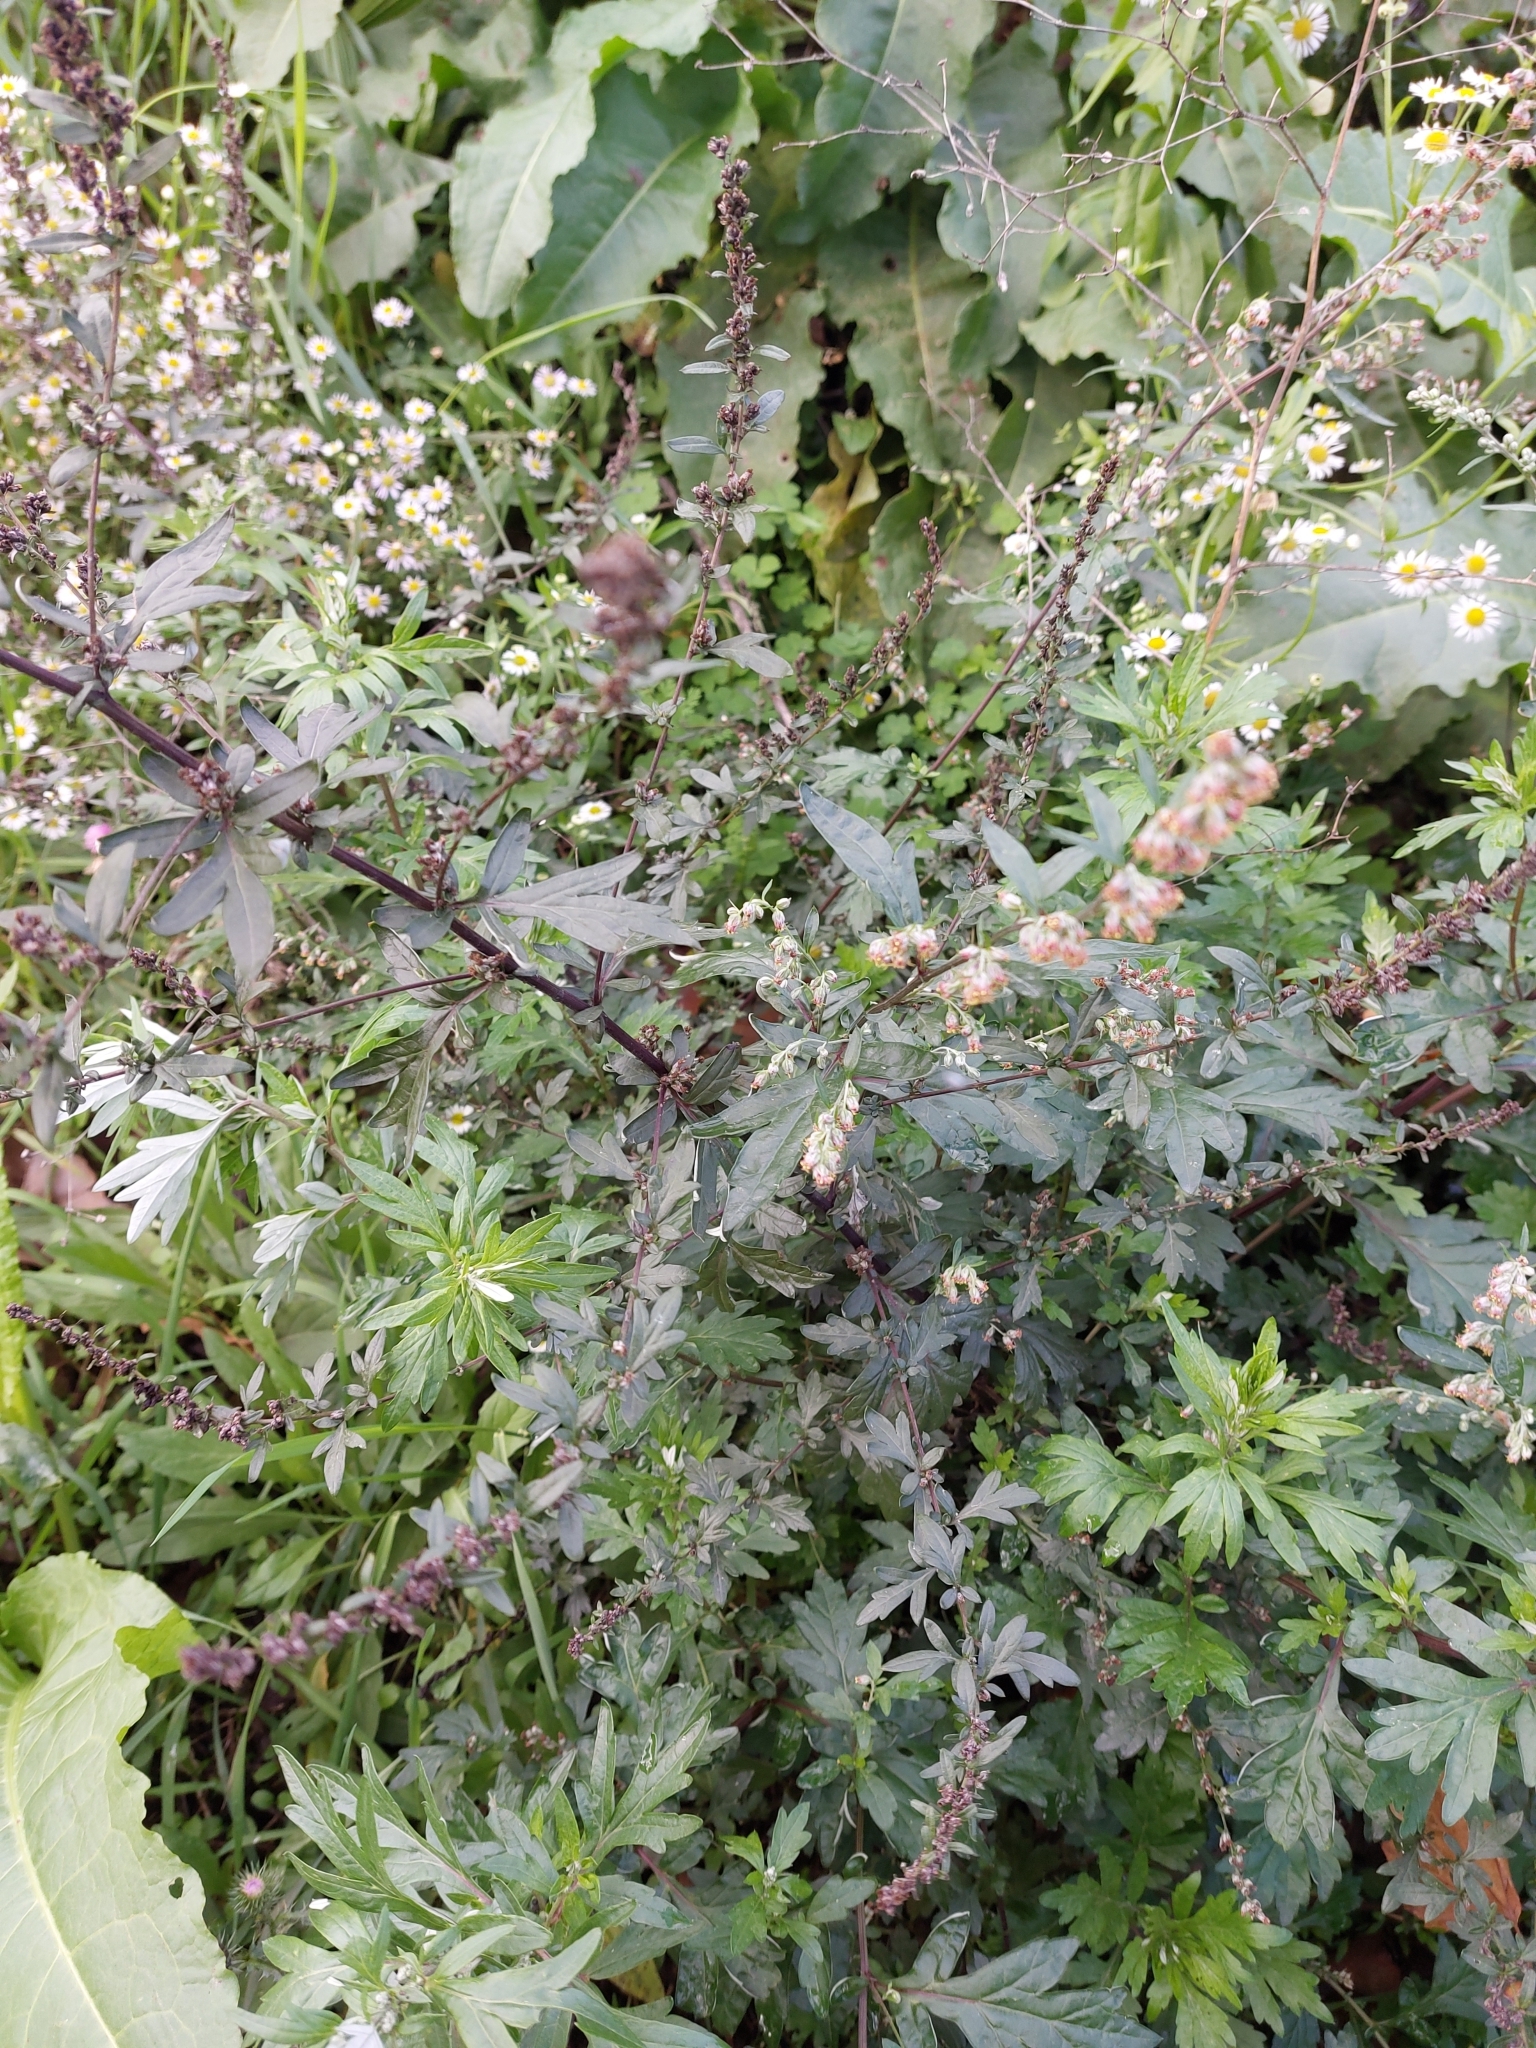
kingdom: Plantae
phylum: Tracheophyta
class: Magnoliopsida
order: Asterales
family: Asteraceae
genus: Artemisia
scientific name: Artemisia verlotiorum
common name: Chinese mugwort
